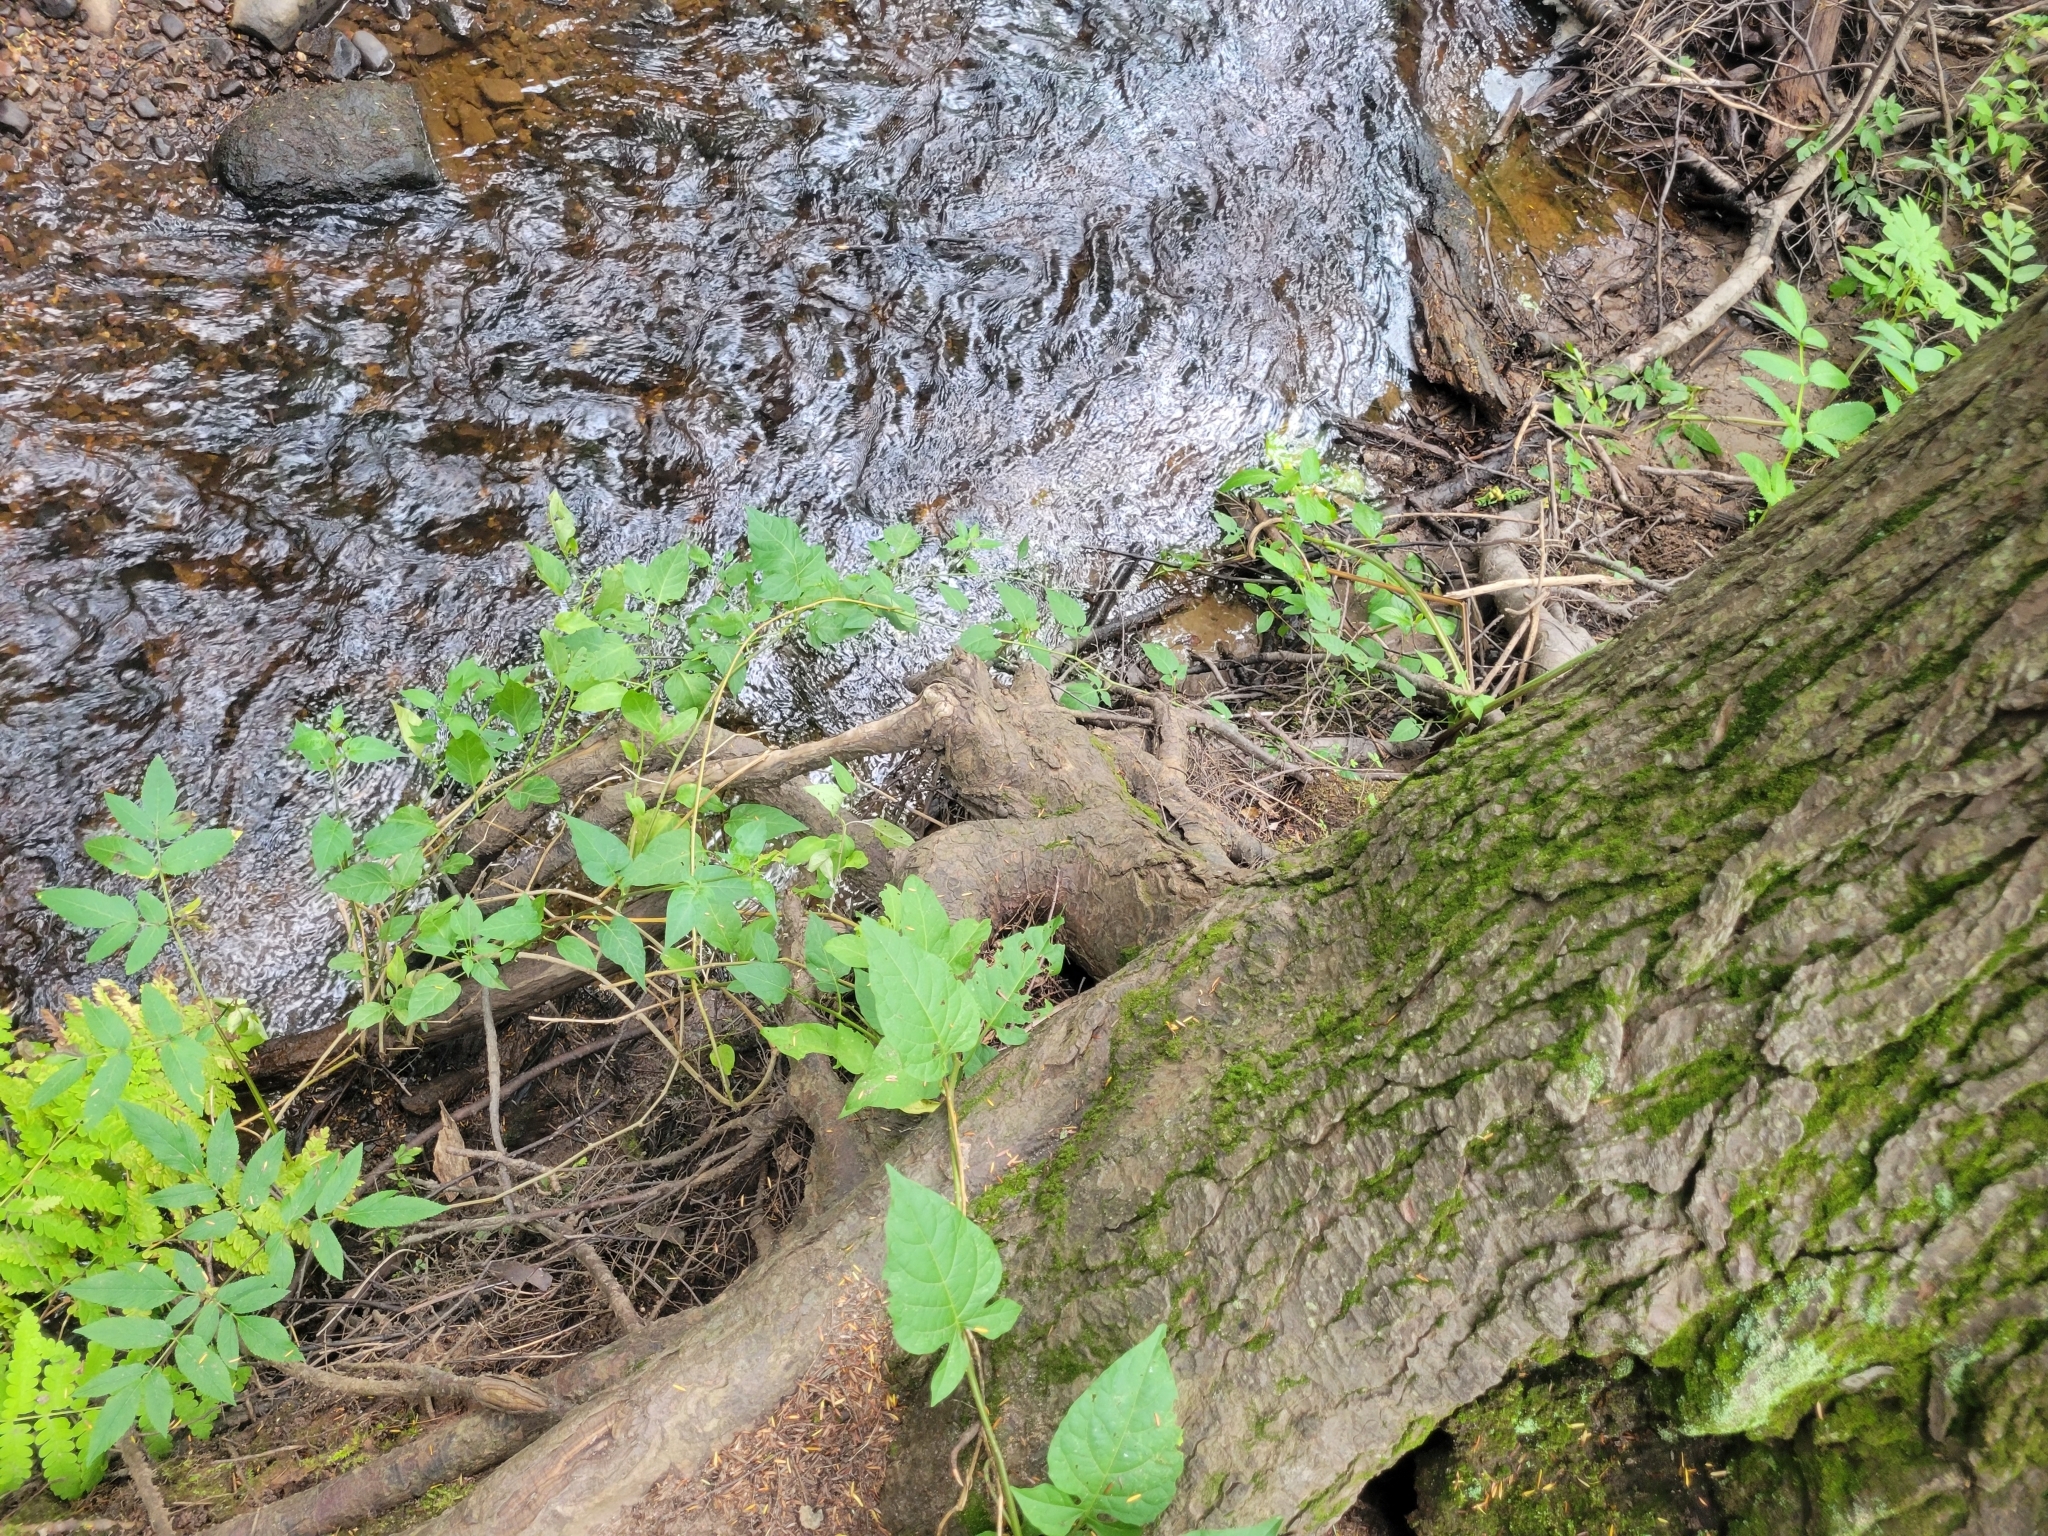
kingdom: Plantae
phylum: Tracheophyta
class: Magnoliopsida
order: Solanales
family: Solanaceae
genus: Solanum
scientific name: Solanum dulcamara
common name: Climbing nightshade
